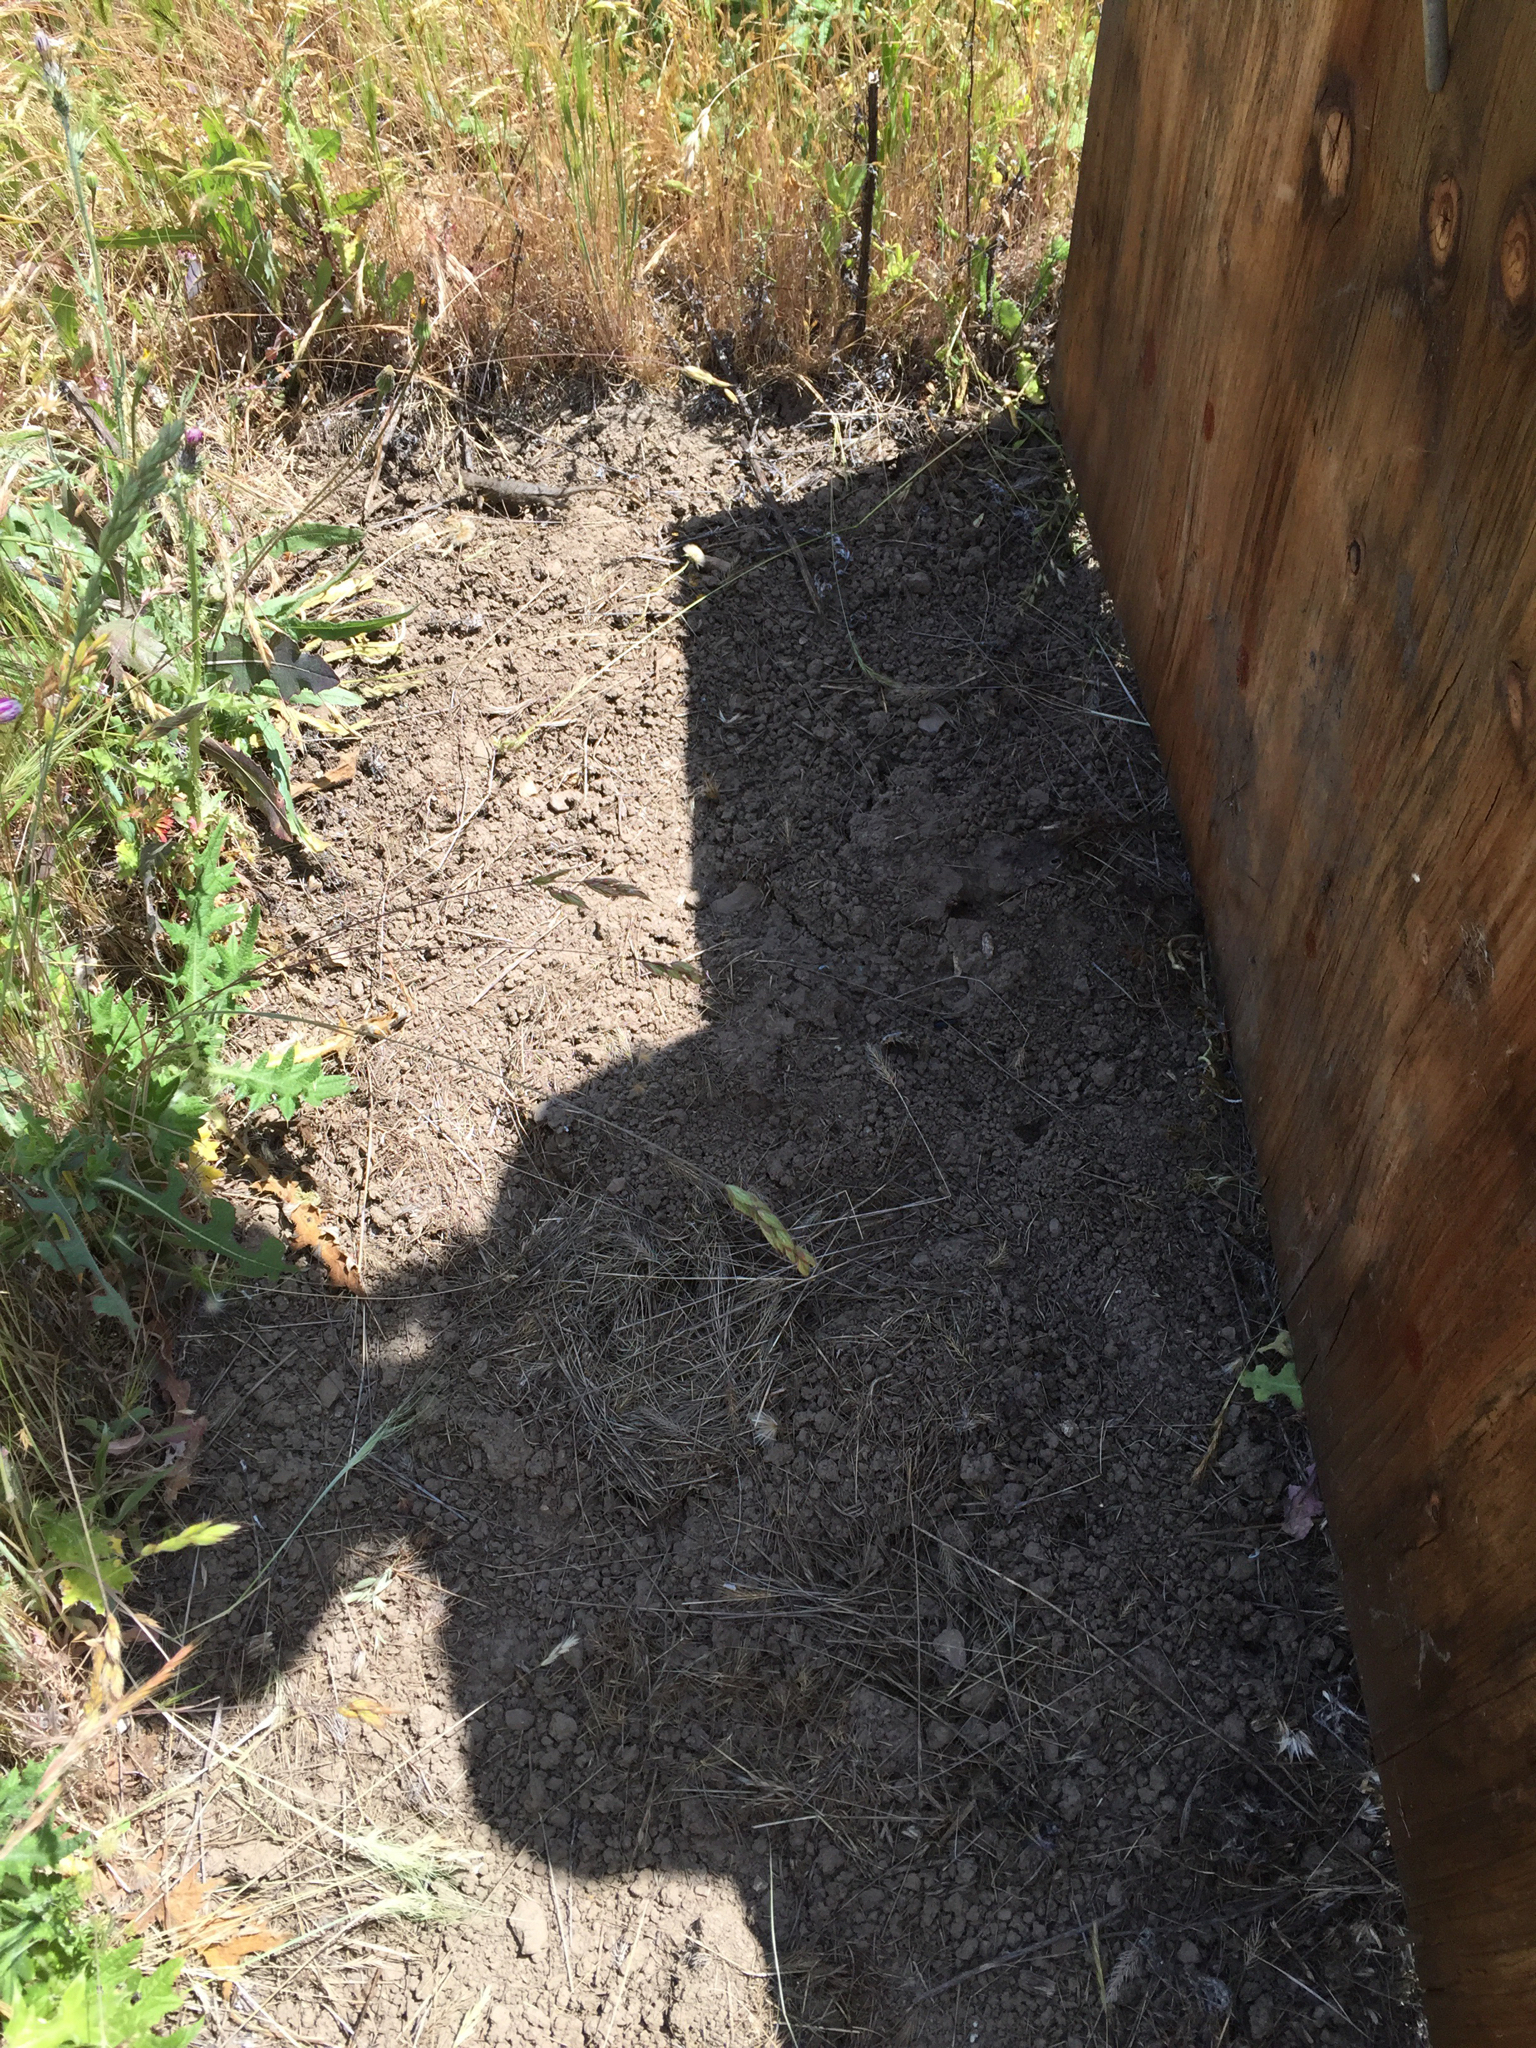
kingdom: Animalia
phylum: Chordata
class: Squamata
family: Phrynosomatidae
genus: Sceloporus
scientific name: Sceloporus occidentalis
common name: Western fence lizard
